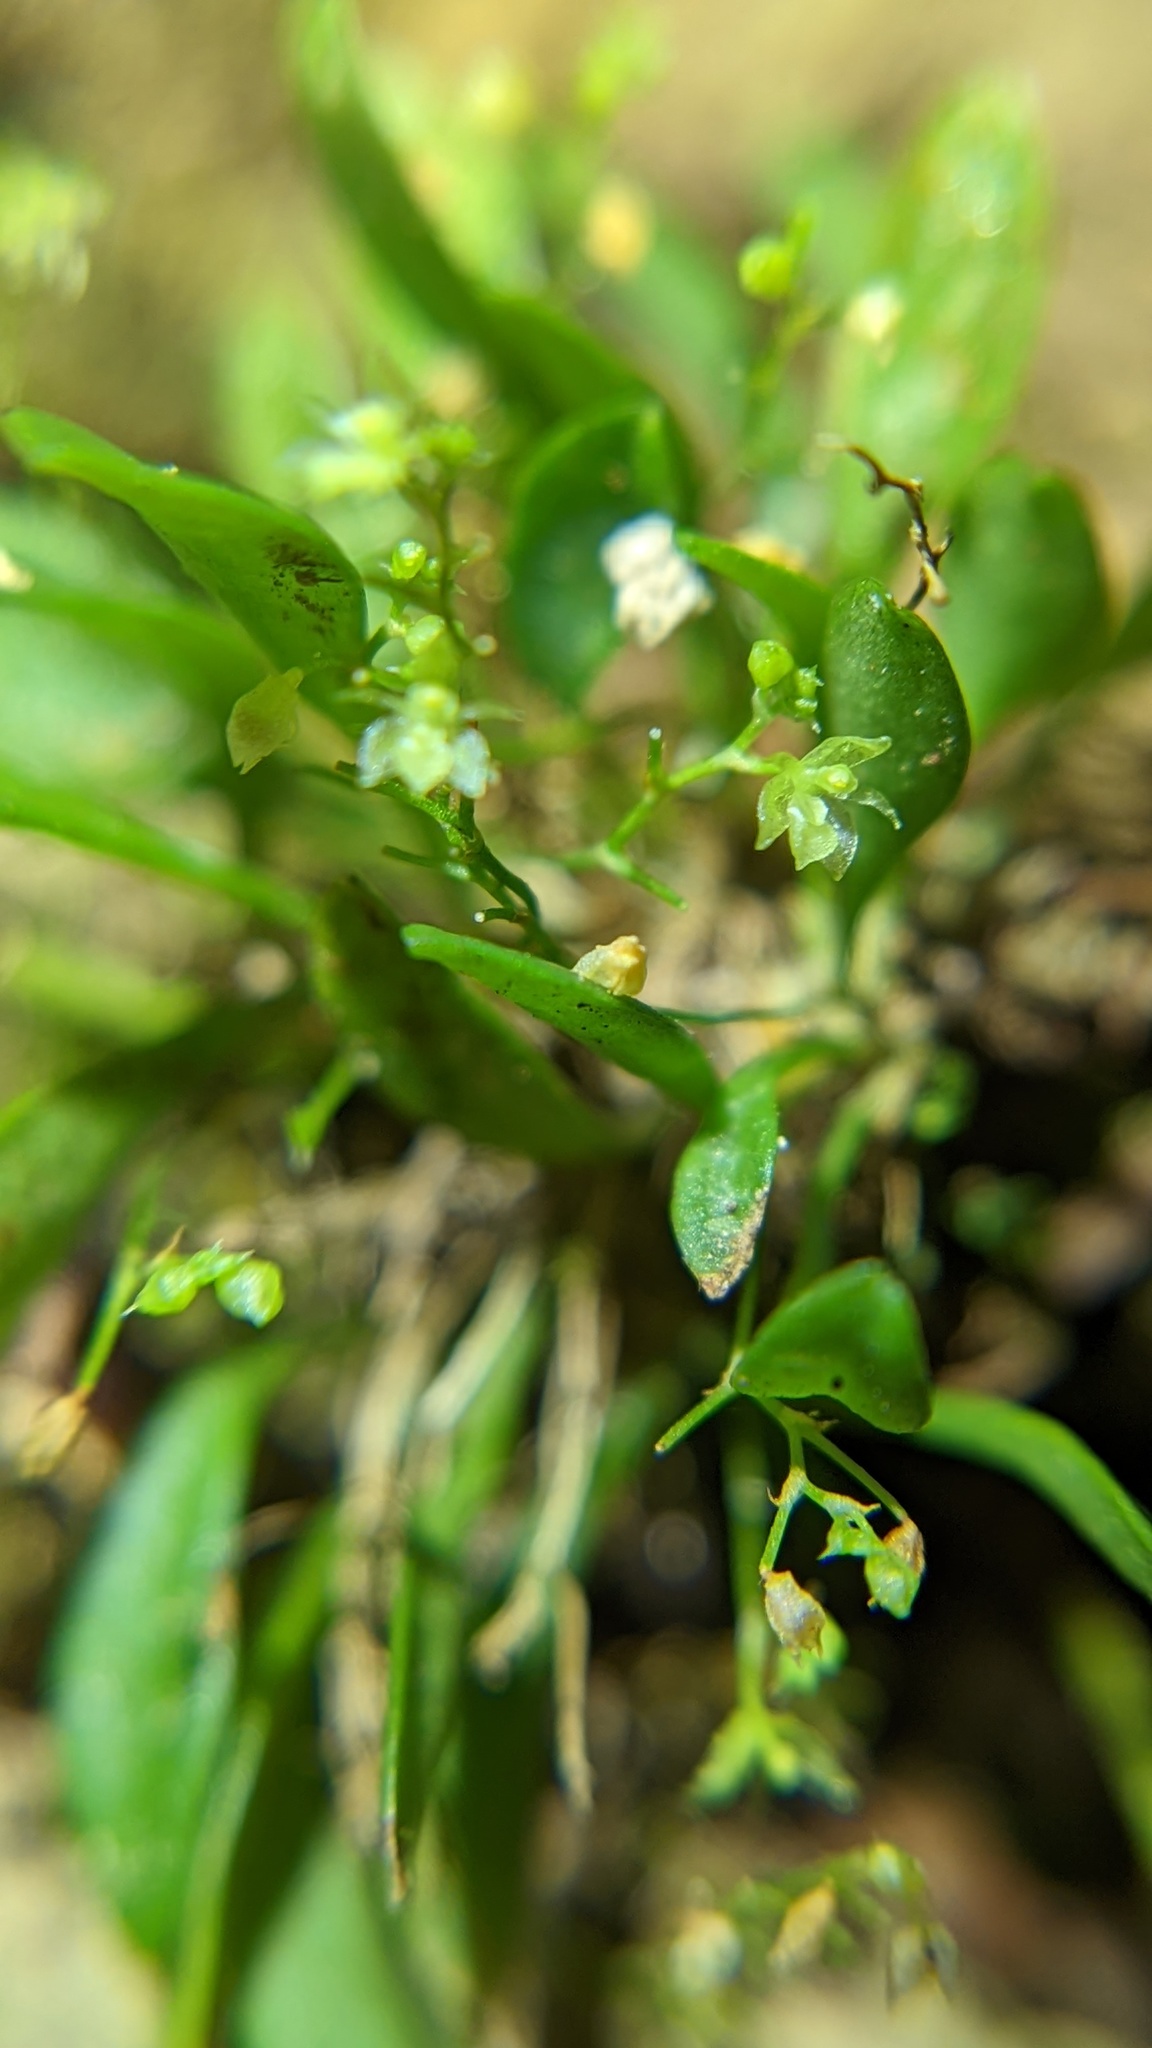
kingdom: Plantae
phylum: Tracheophyta
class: Liliopsida
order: Asparagales
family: Orchidaceae
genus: Platystele
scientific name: Platystele microtatantha
